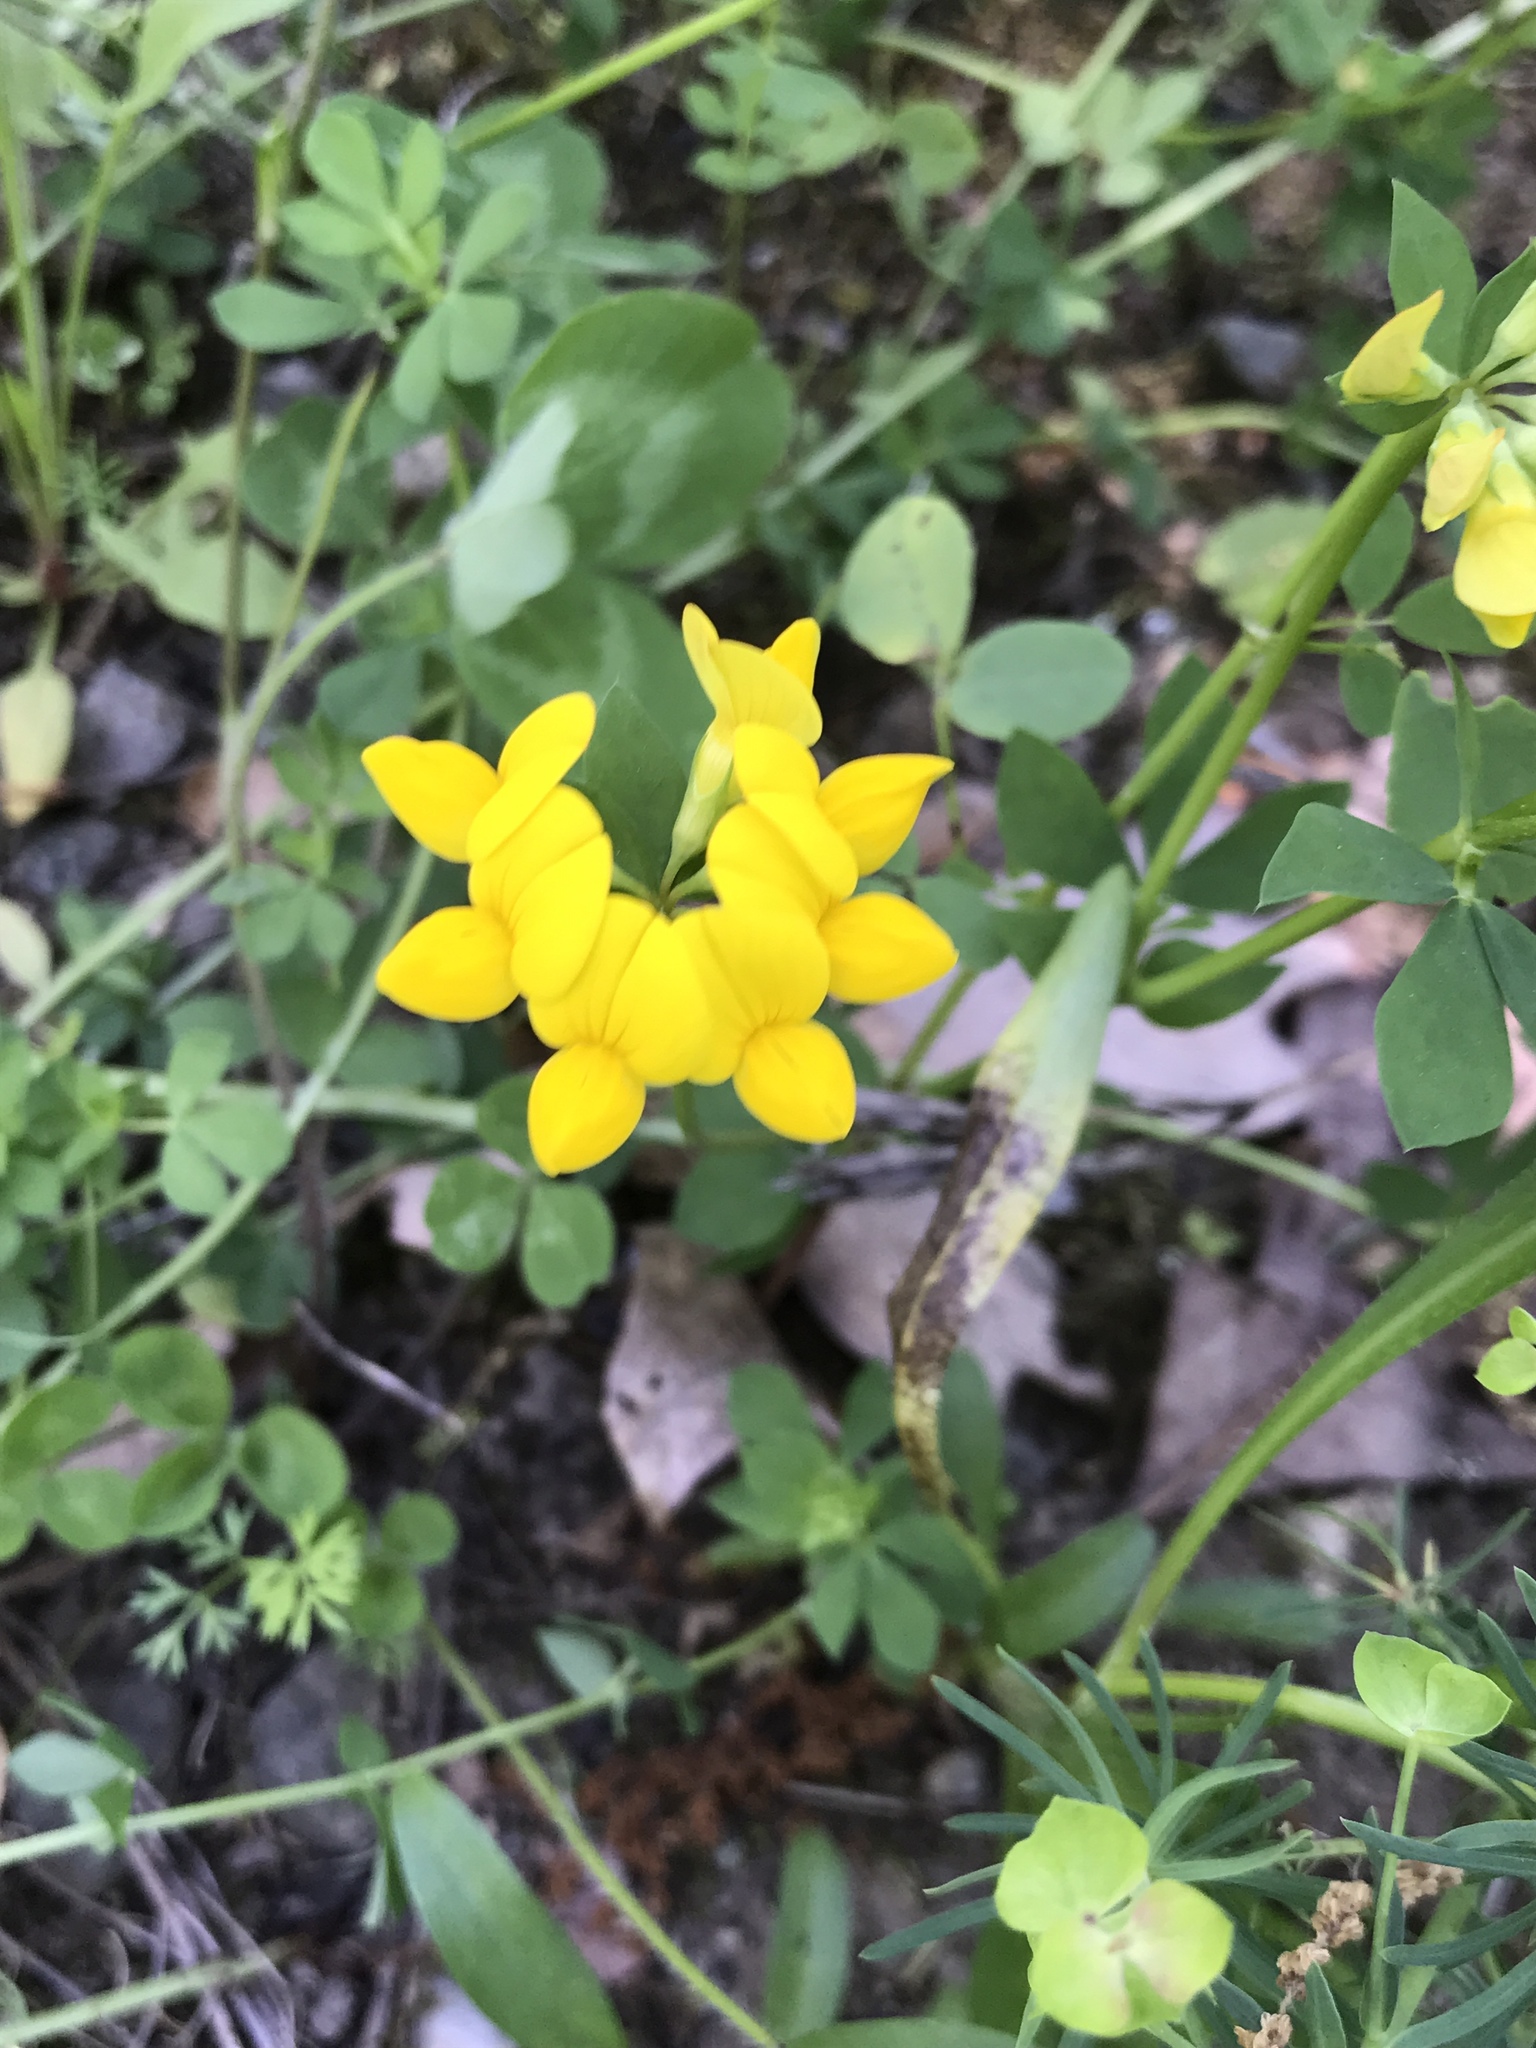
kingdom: Plantae
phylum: Tracheophyta
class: Magnoliopsida
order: Fabales
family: Fabaceae
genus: Lotus
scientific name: Lotus corniculatus
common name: Common bird's-foot-trefoil
